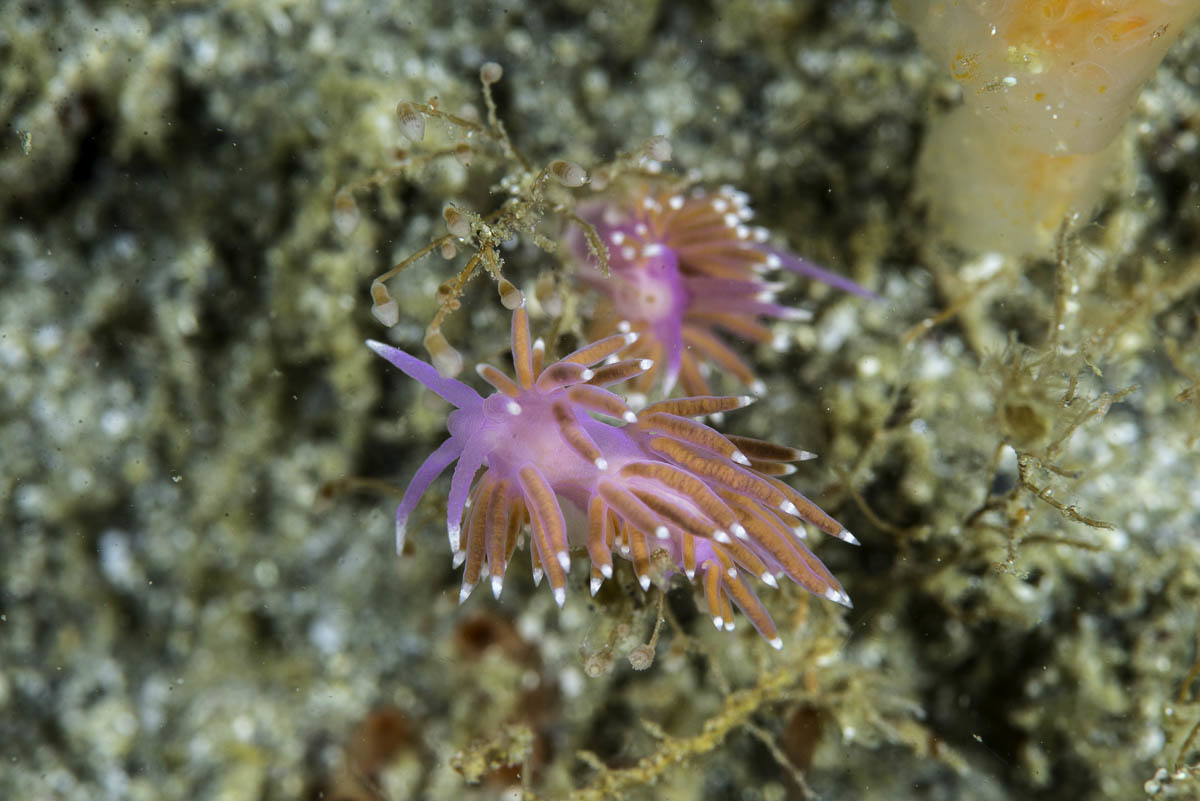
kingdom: Animalia
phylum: Mollusca
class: Gastropoda
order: Nudibranchia
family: Flabellinidae
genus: Edmundsella
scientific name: Edmundsella pedata
